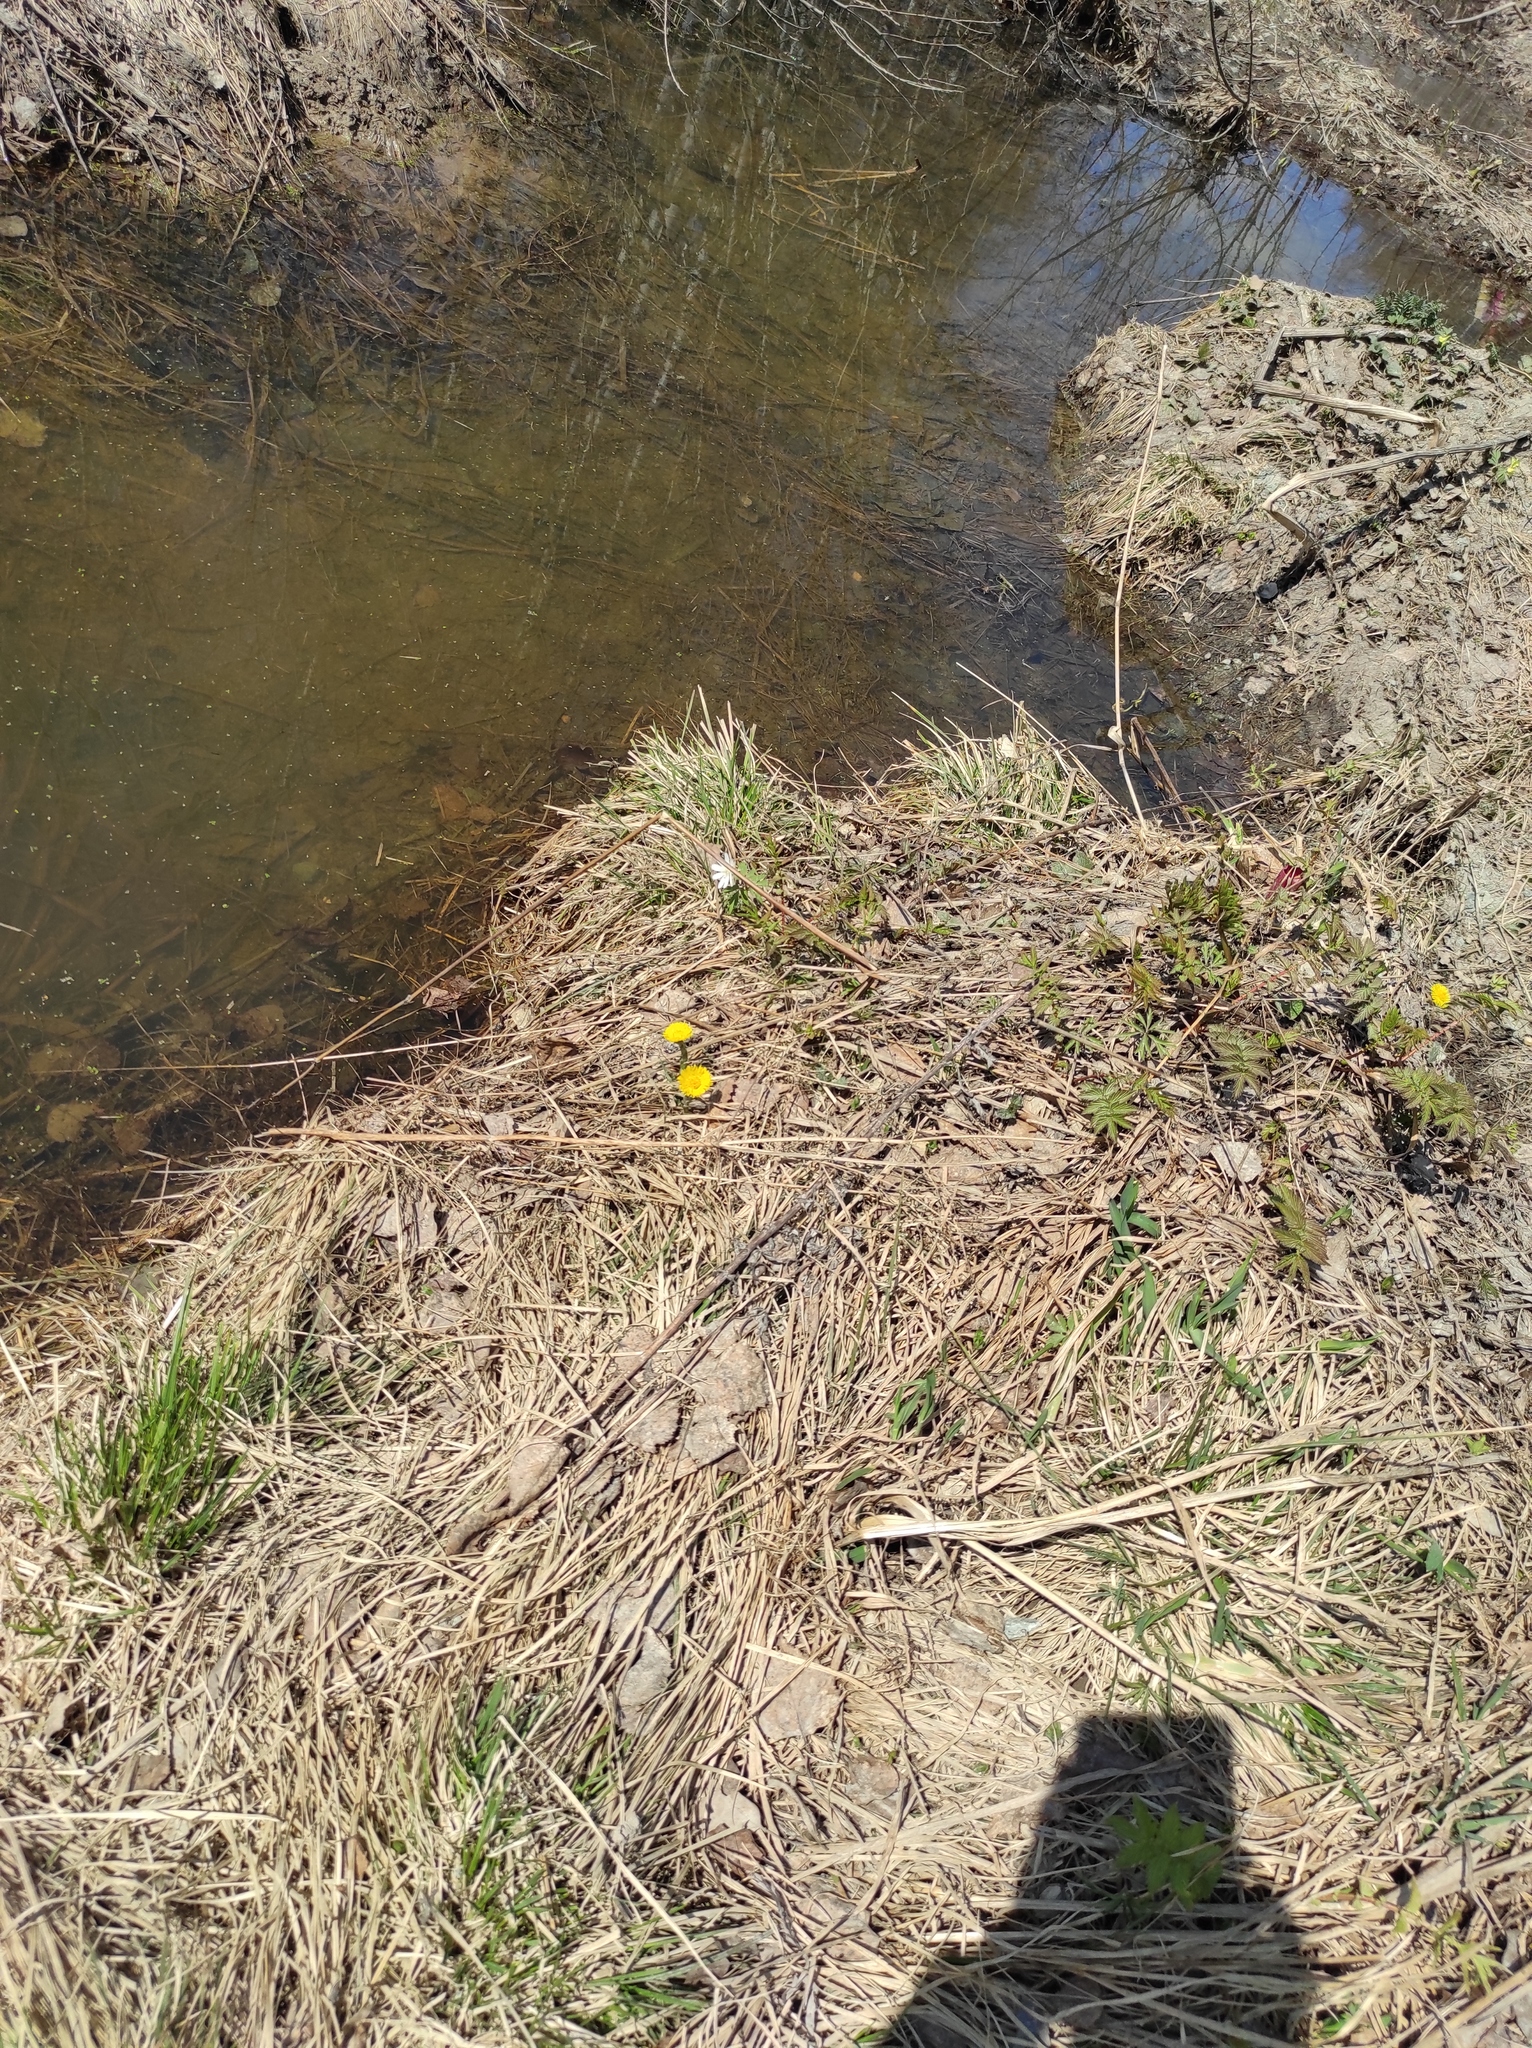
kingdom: Plantae
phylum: Tracheophyta
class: Magnoliopsida
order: Asterales
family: Asteraceae
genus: Tussilago
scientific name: Tussilago farfara
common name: Coltsfoot
